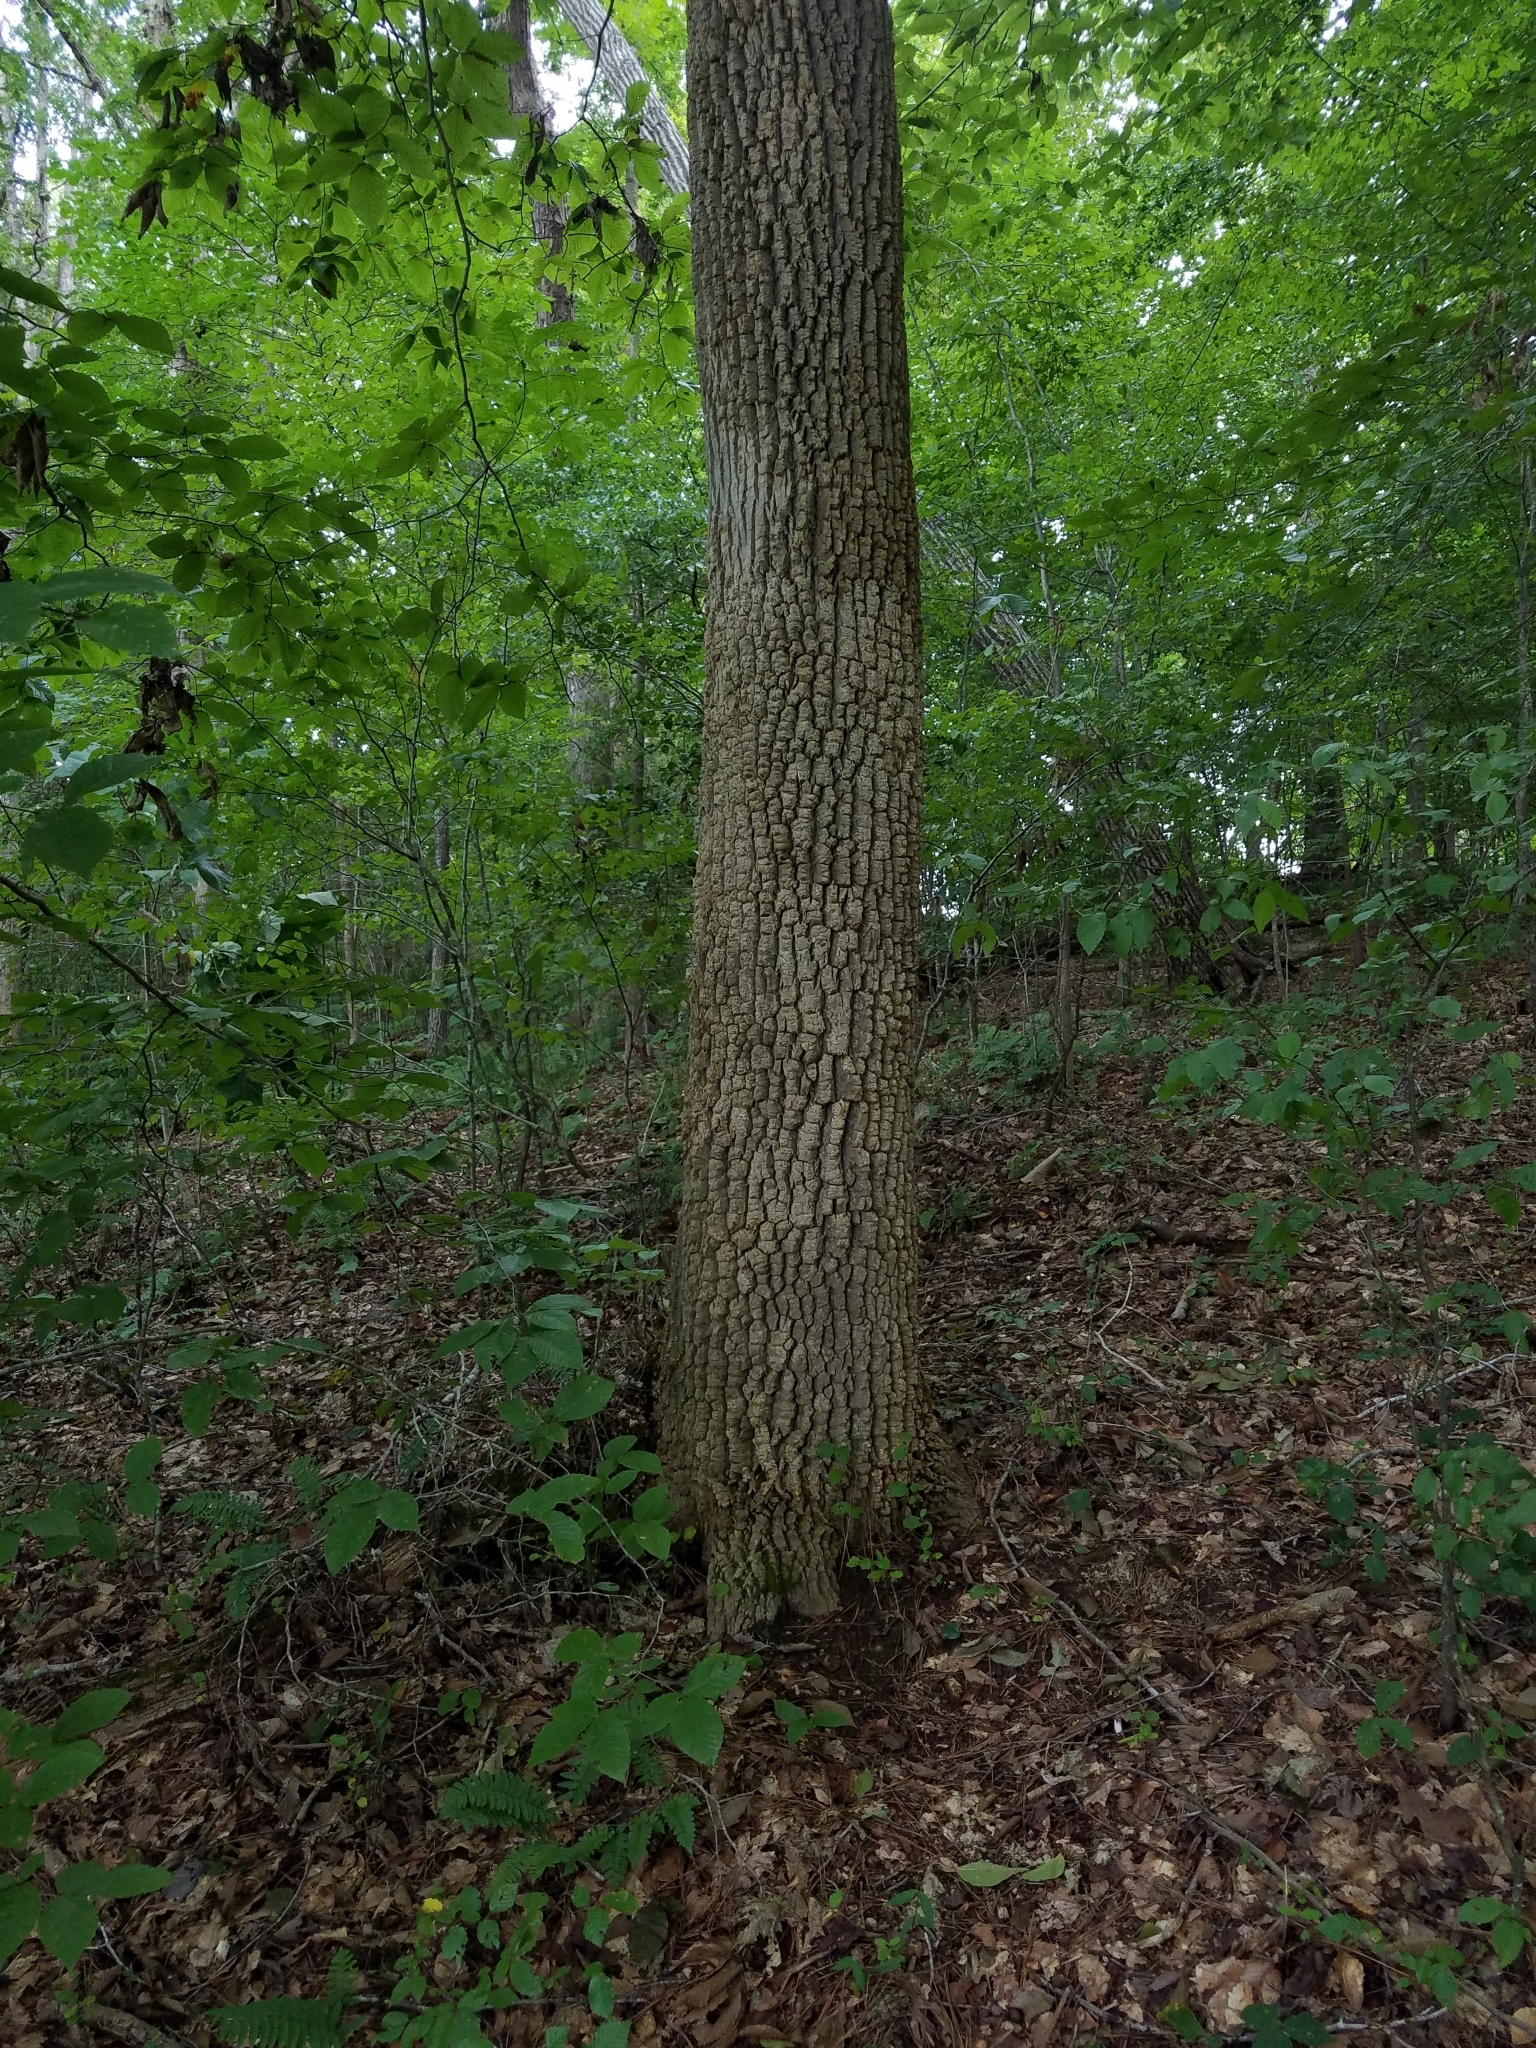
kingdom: Plantae
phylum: Tracheophyta
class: Magnoliopsida
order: Ericales
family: Ericaceae
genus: Oxydendrum
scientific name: Oxydendrum arboreum
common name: Sourwood
